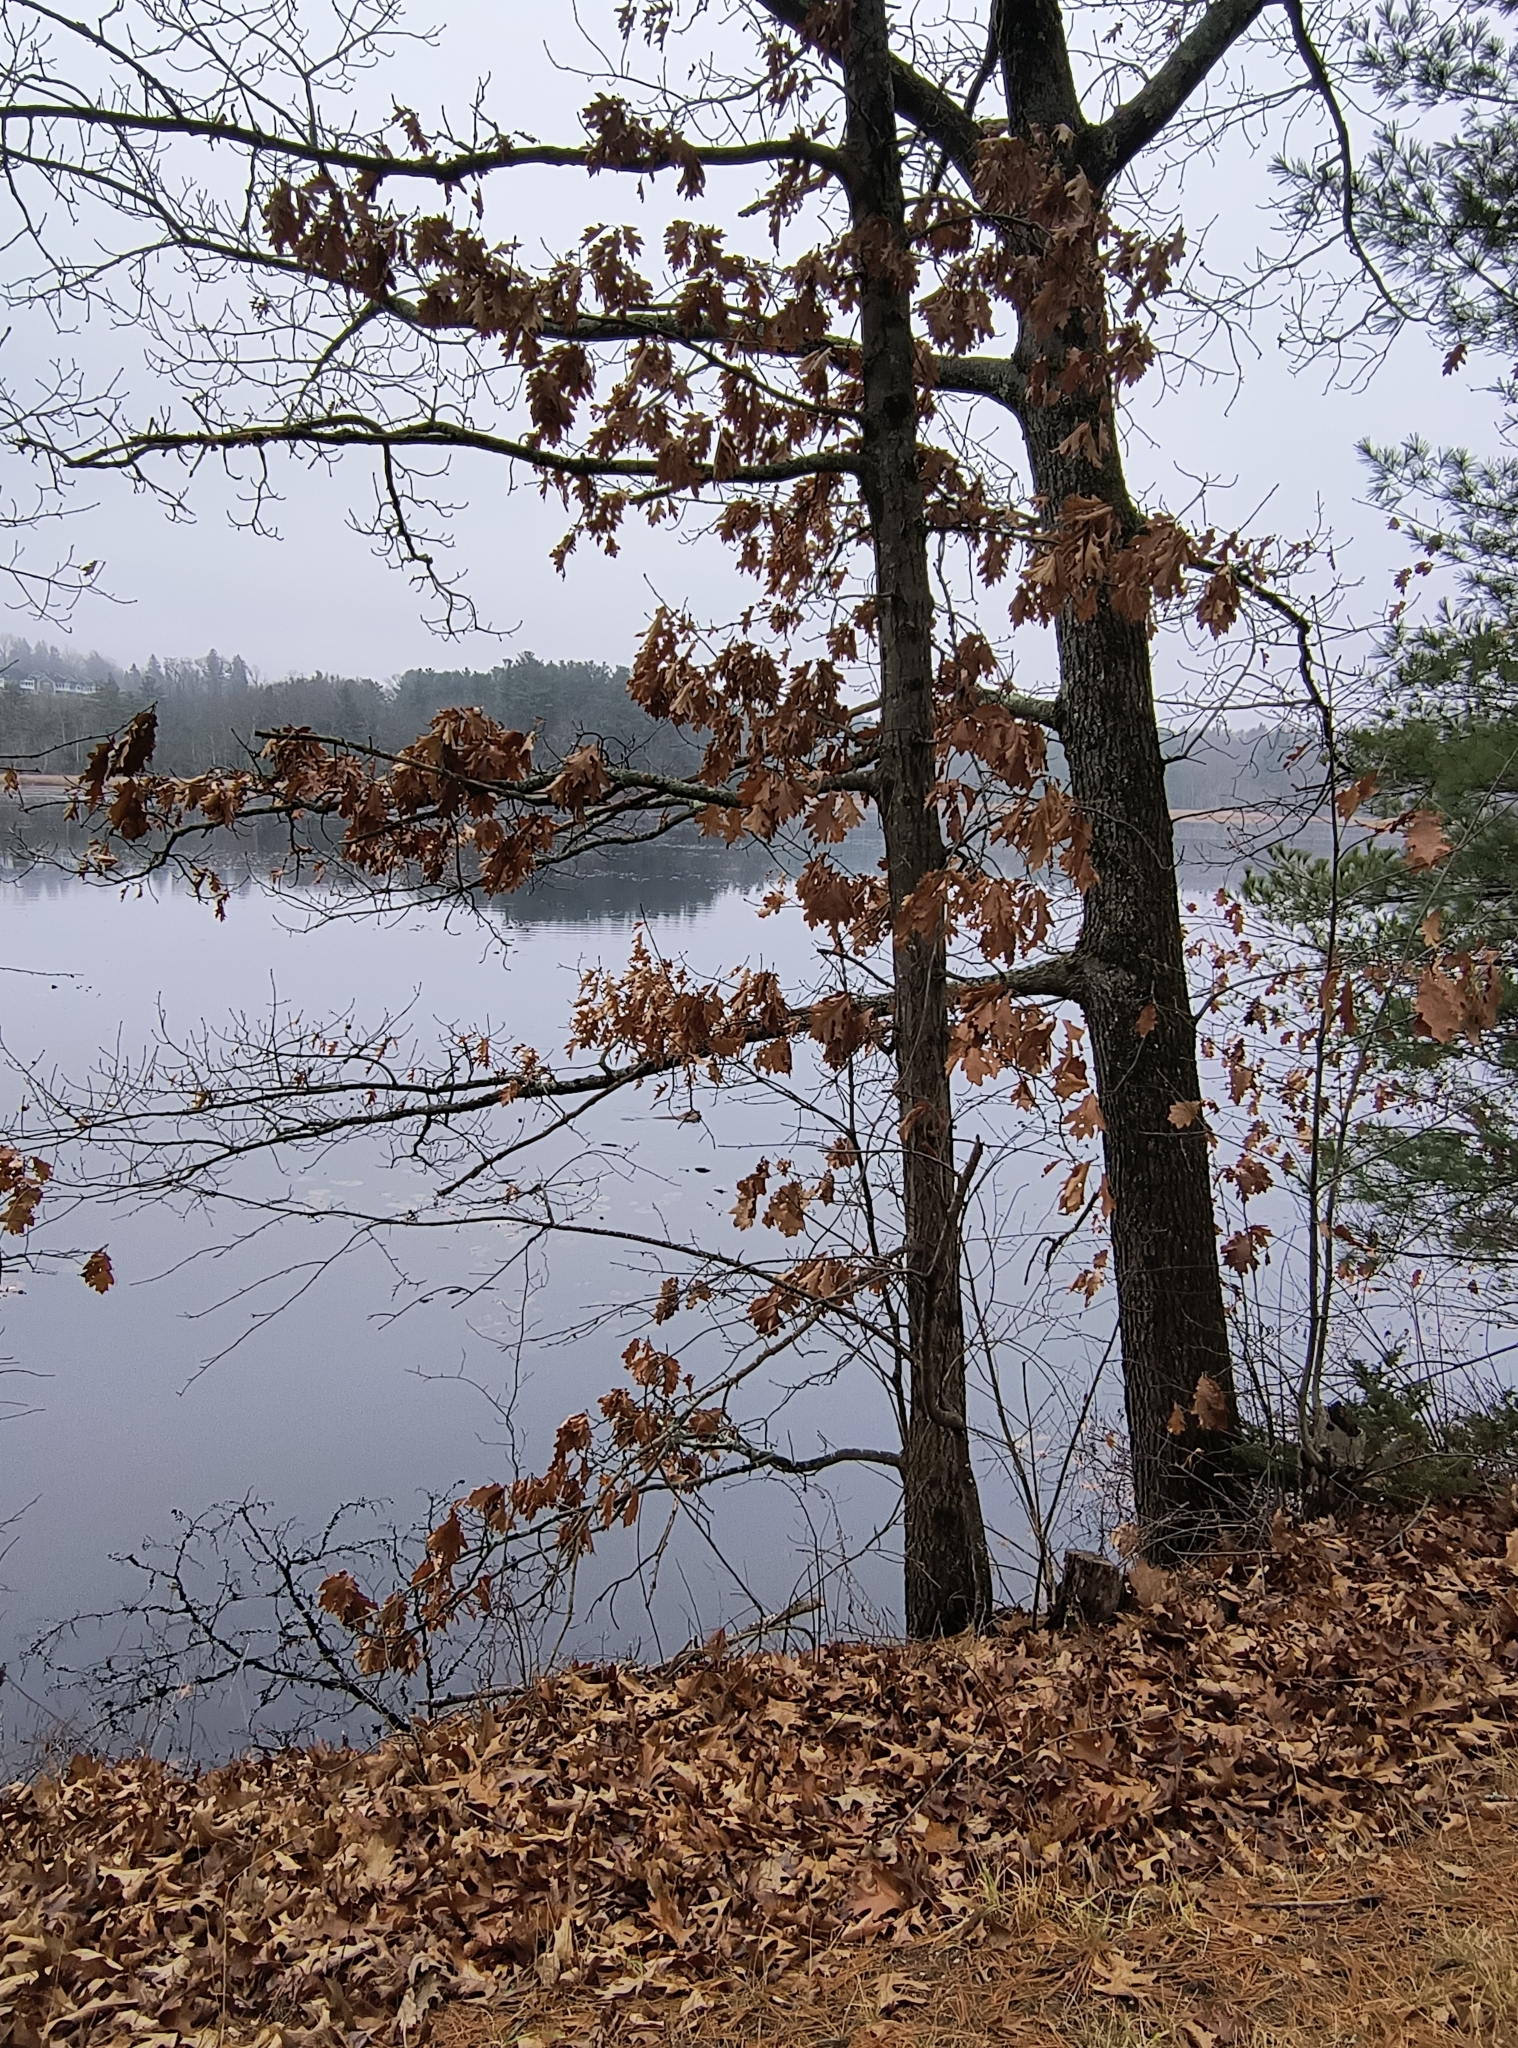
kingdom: Animalia
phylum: Chordata
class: Mammalia
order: Rodentia
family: Castoridae
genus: Castor
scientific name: Castor canadensis
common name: American beaver
